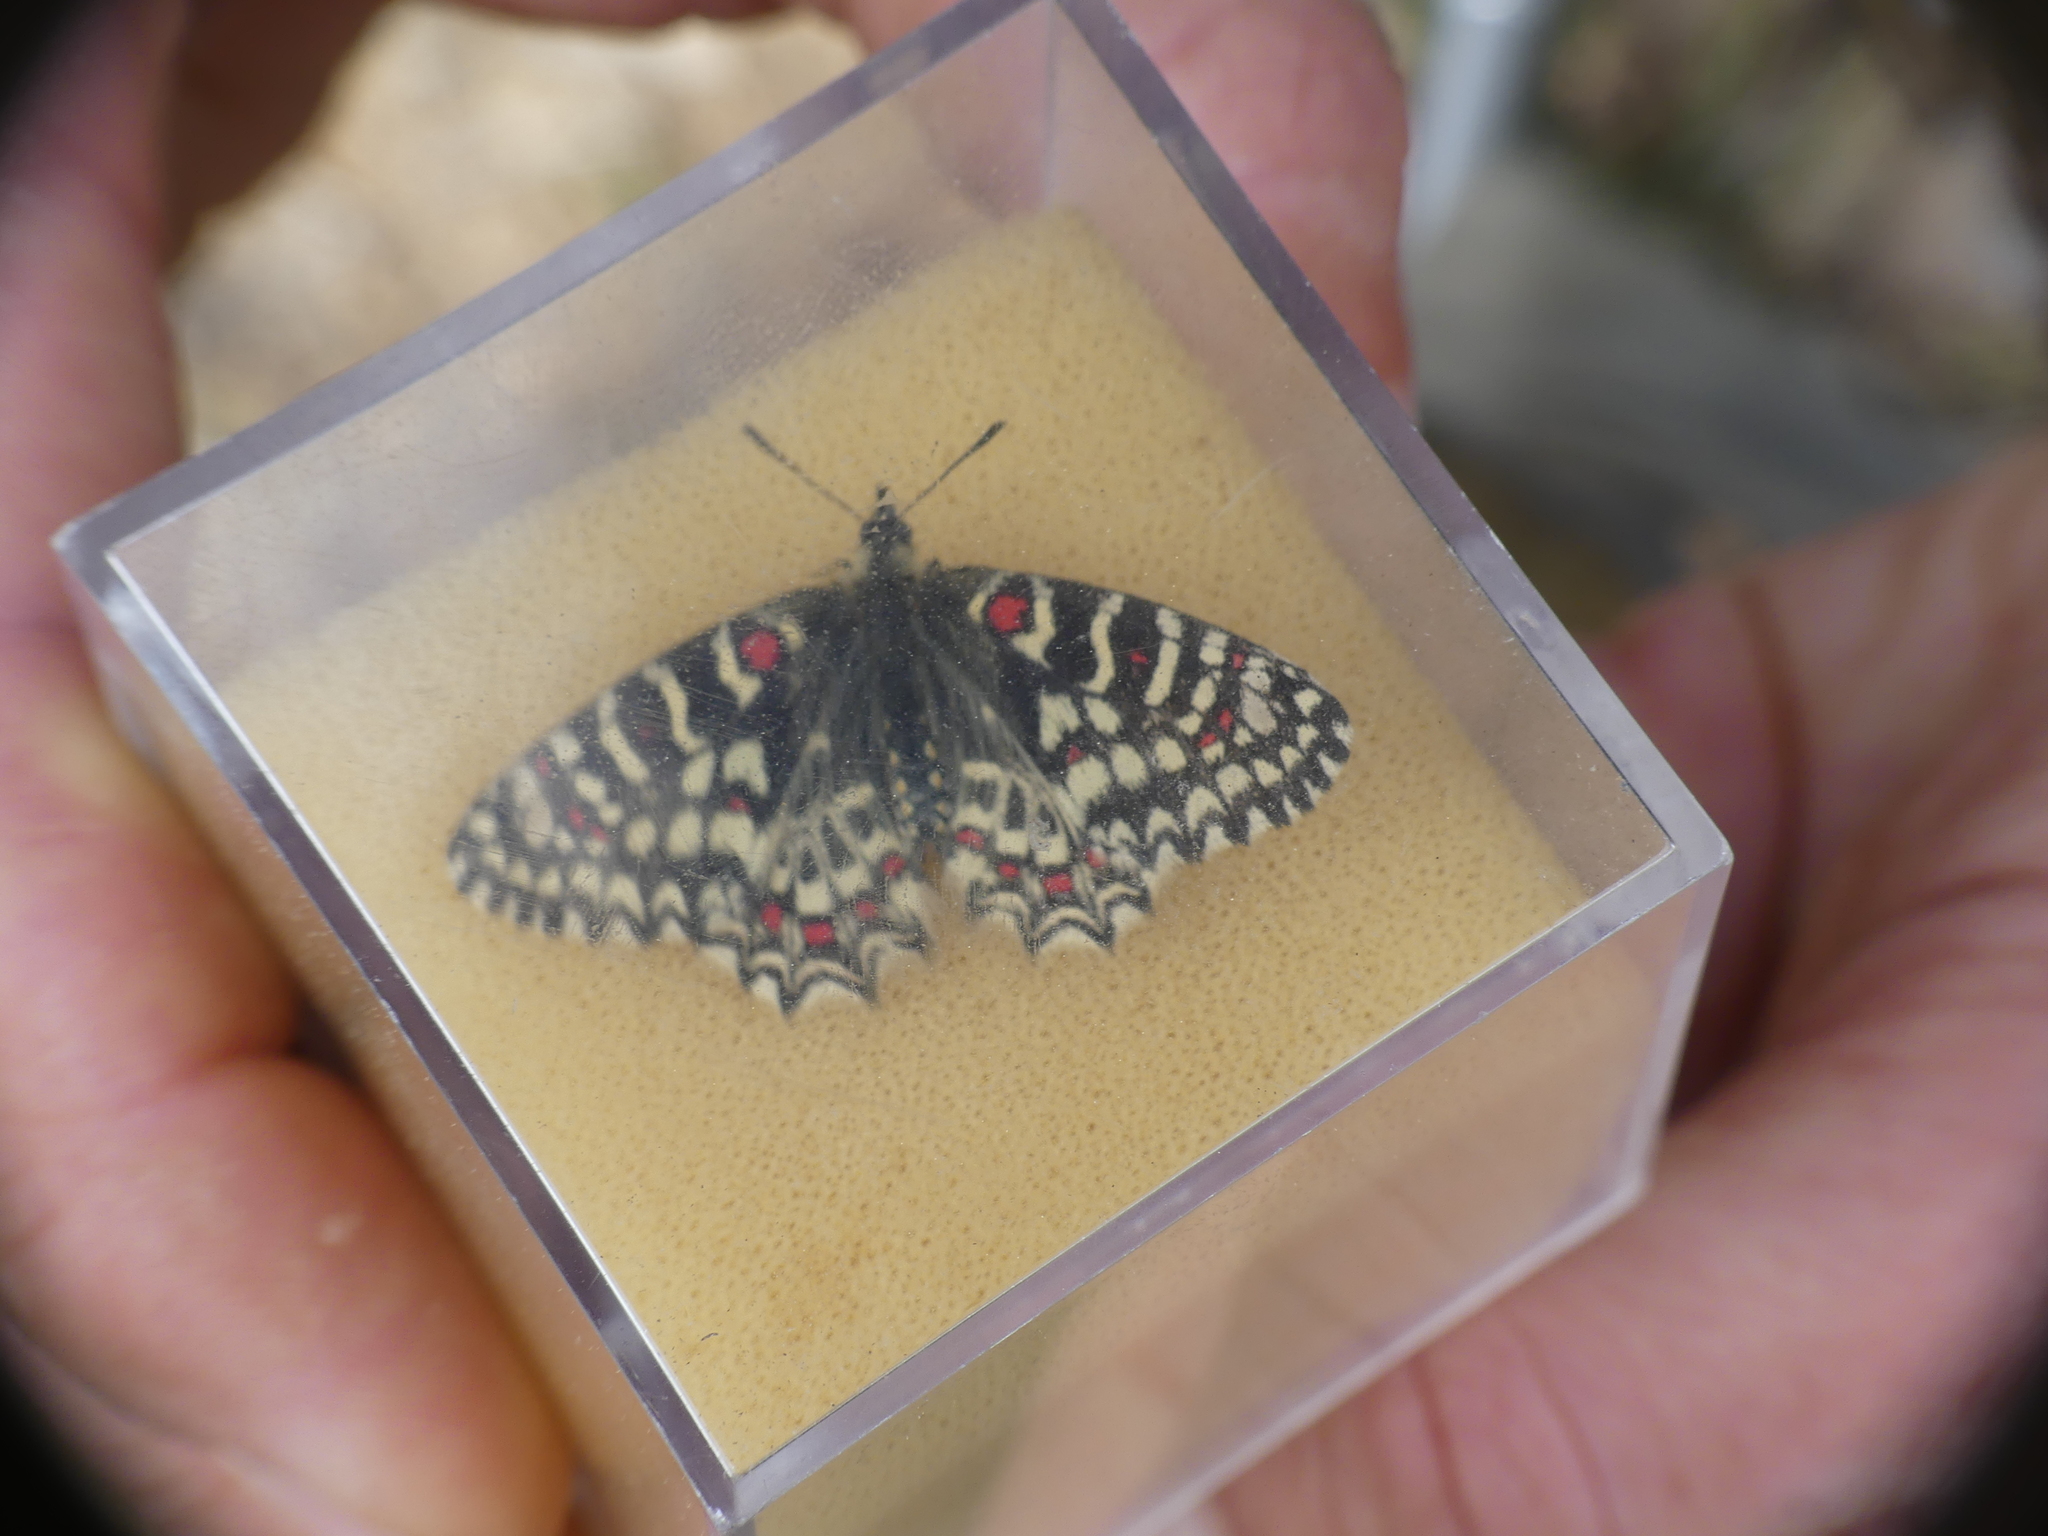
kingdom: Animalia
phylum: Arthropoda
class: Insecta
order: Lepidoptera
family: Papilionidae
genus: Zerynthia
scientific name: Zerynthia rumina
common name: Spanish festoon
